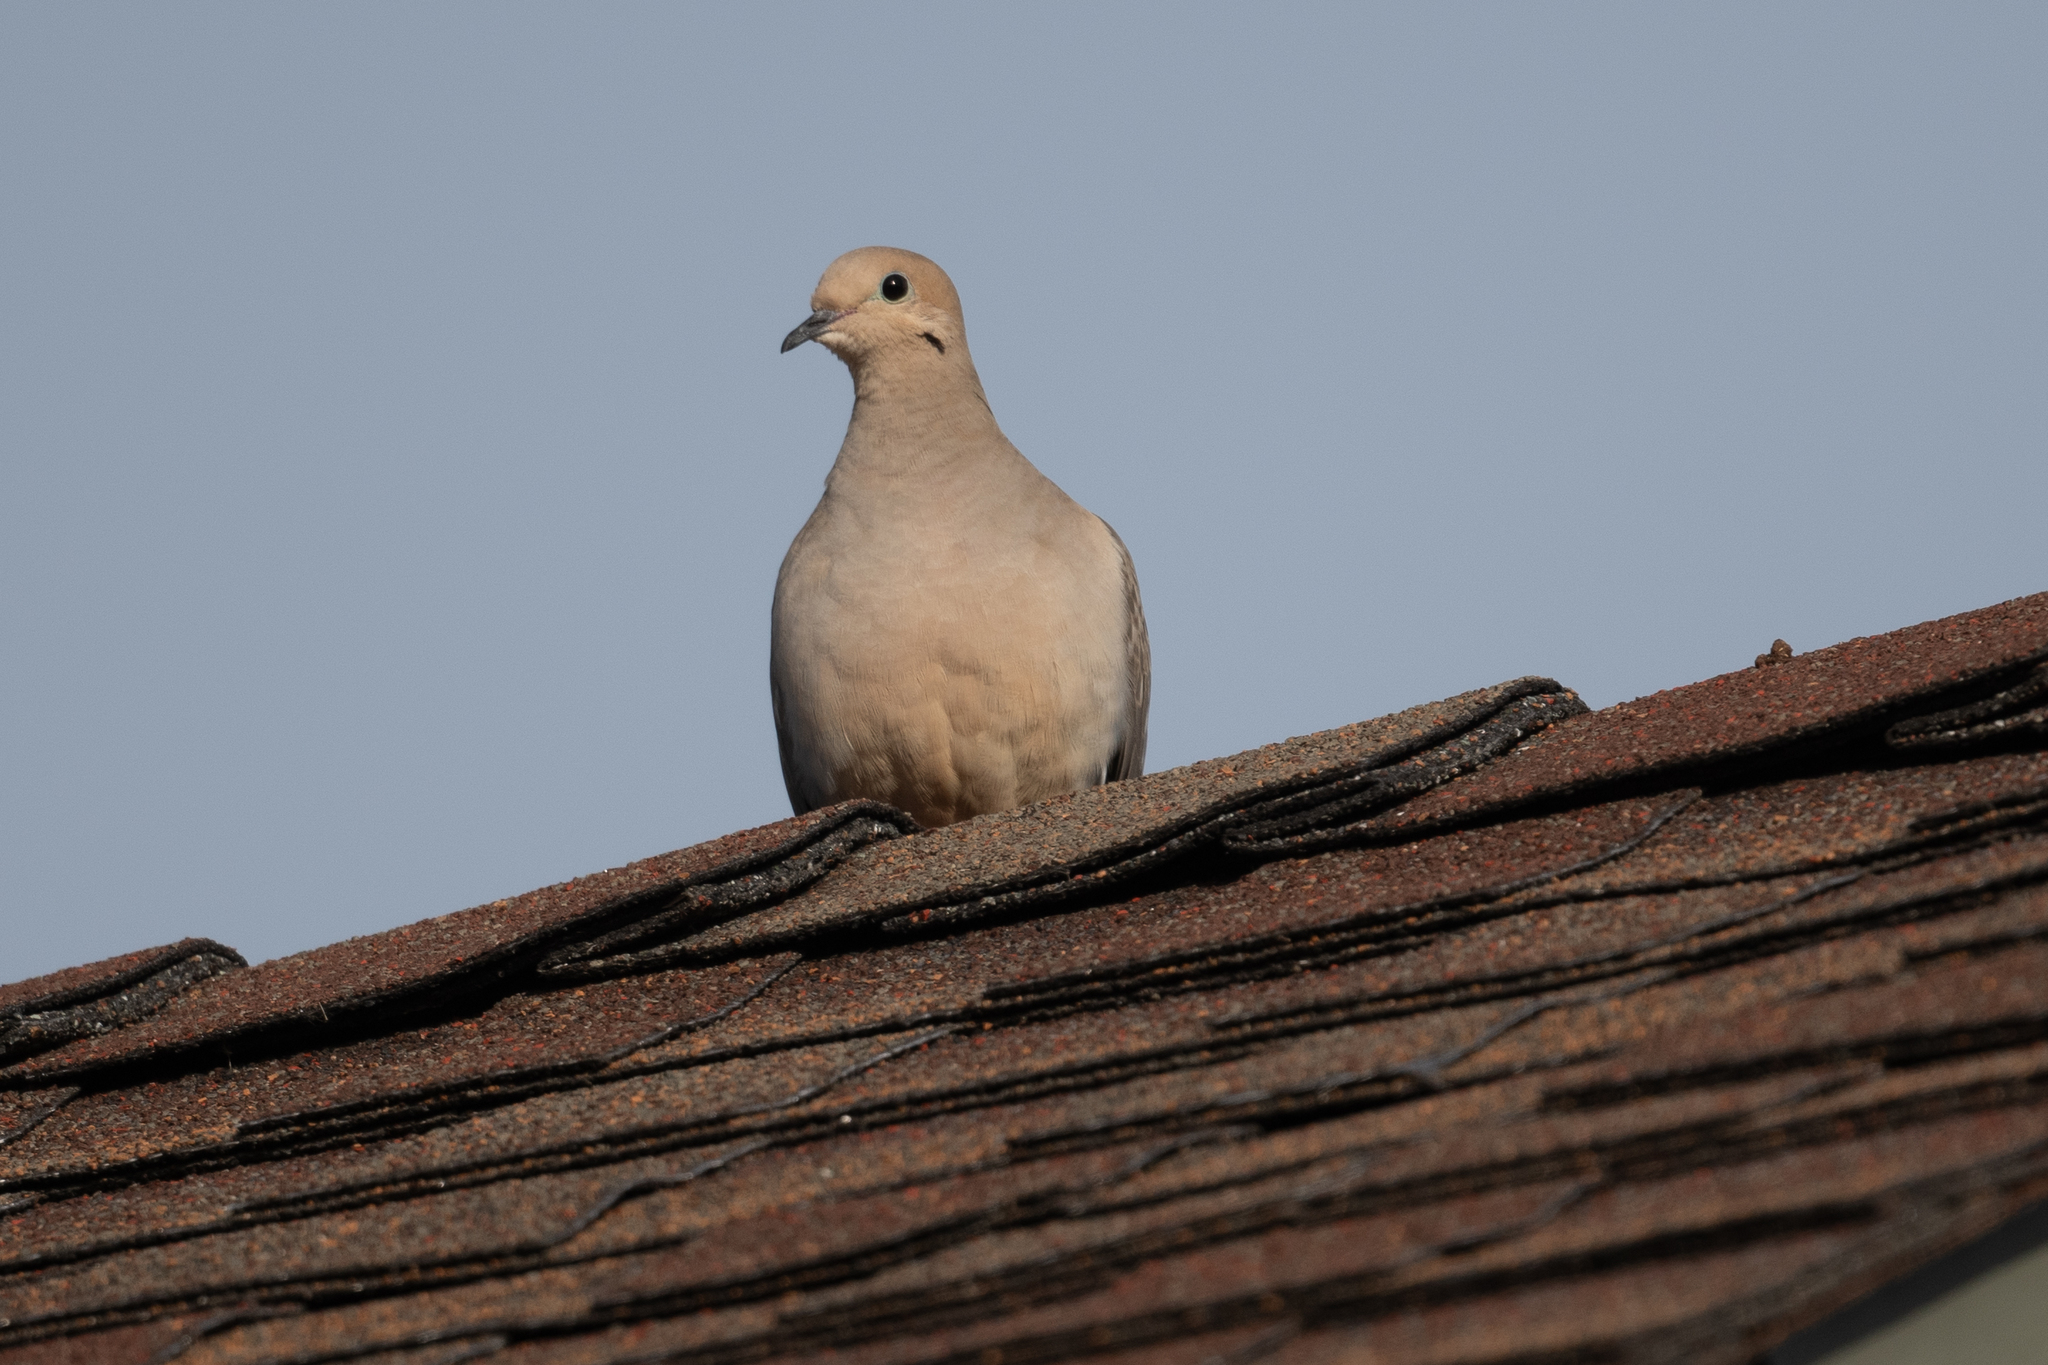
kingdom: Animalia
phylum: Chordata
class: Aves
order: Columbiformes
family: Columbidae
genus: Zenaida
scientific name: Zenaida macroura
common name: Mourning dove
